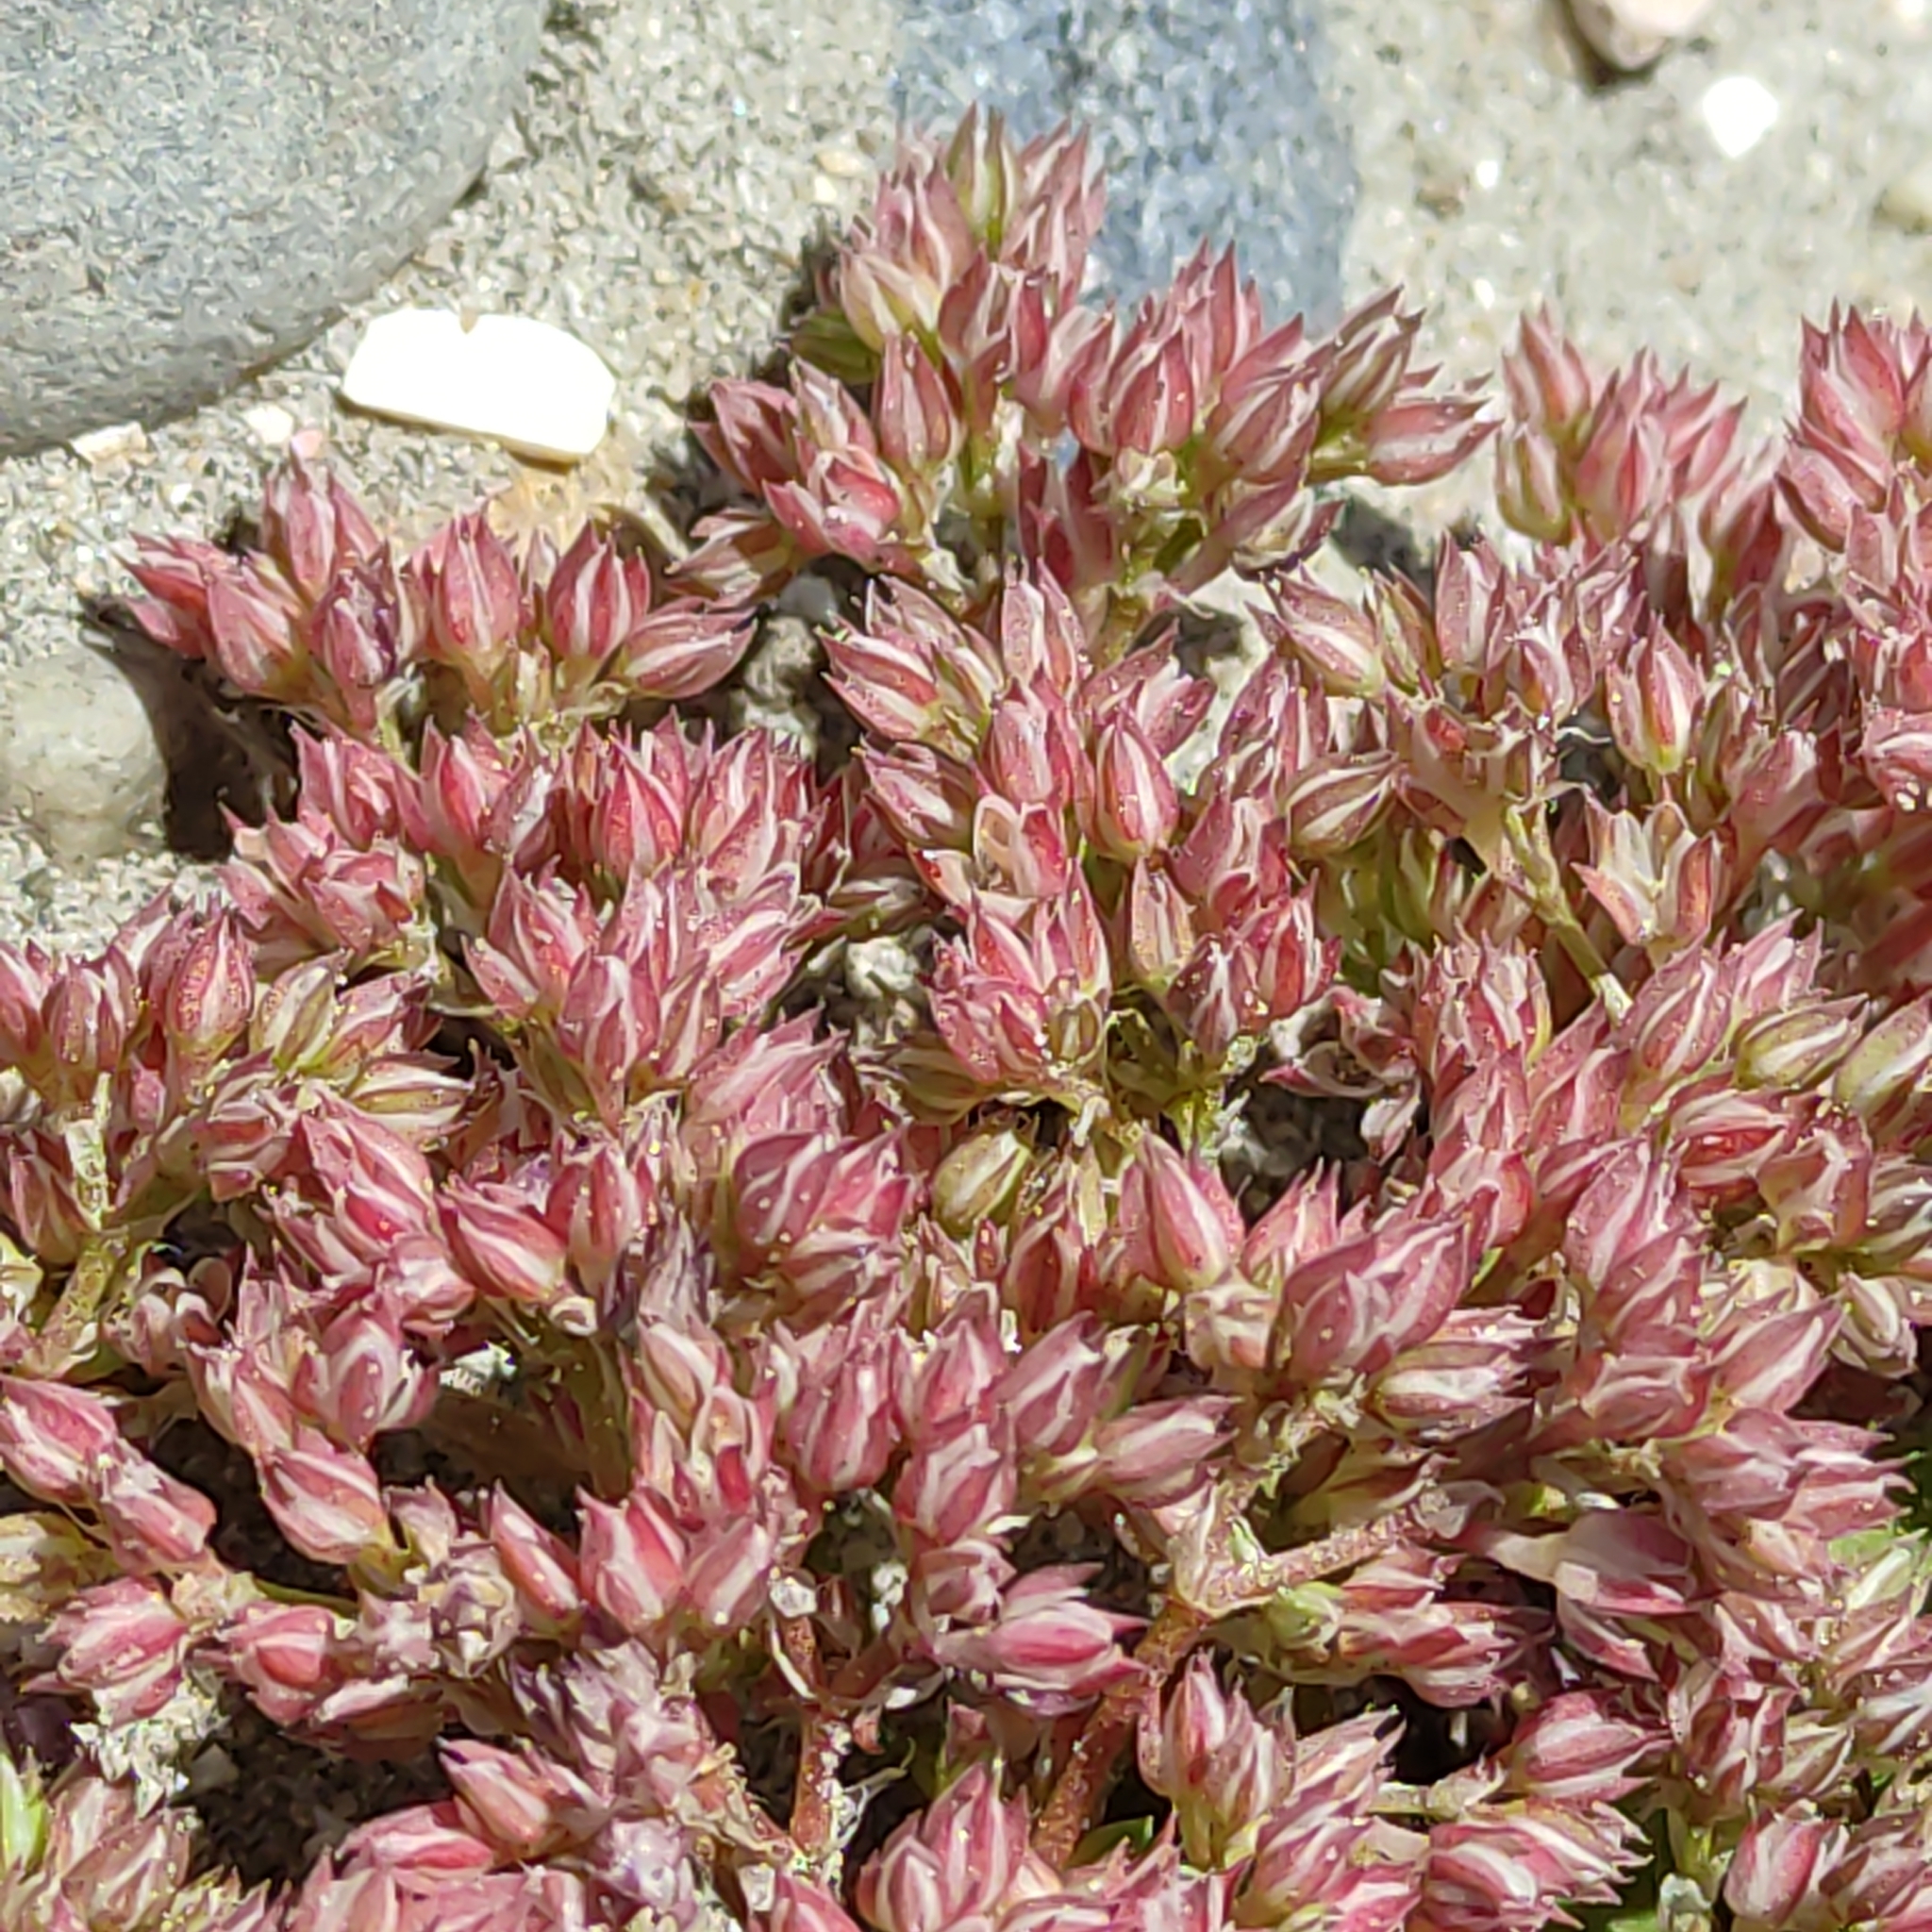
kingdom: Plantae
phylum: Tracheophyta
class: Magnoliopsida
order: Caryophyllales
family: Caryophyllaceae
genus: Polycarpon
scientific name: Polycarpon tetraphyllum
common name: Four-leaved all-seed
